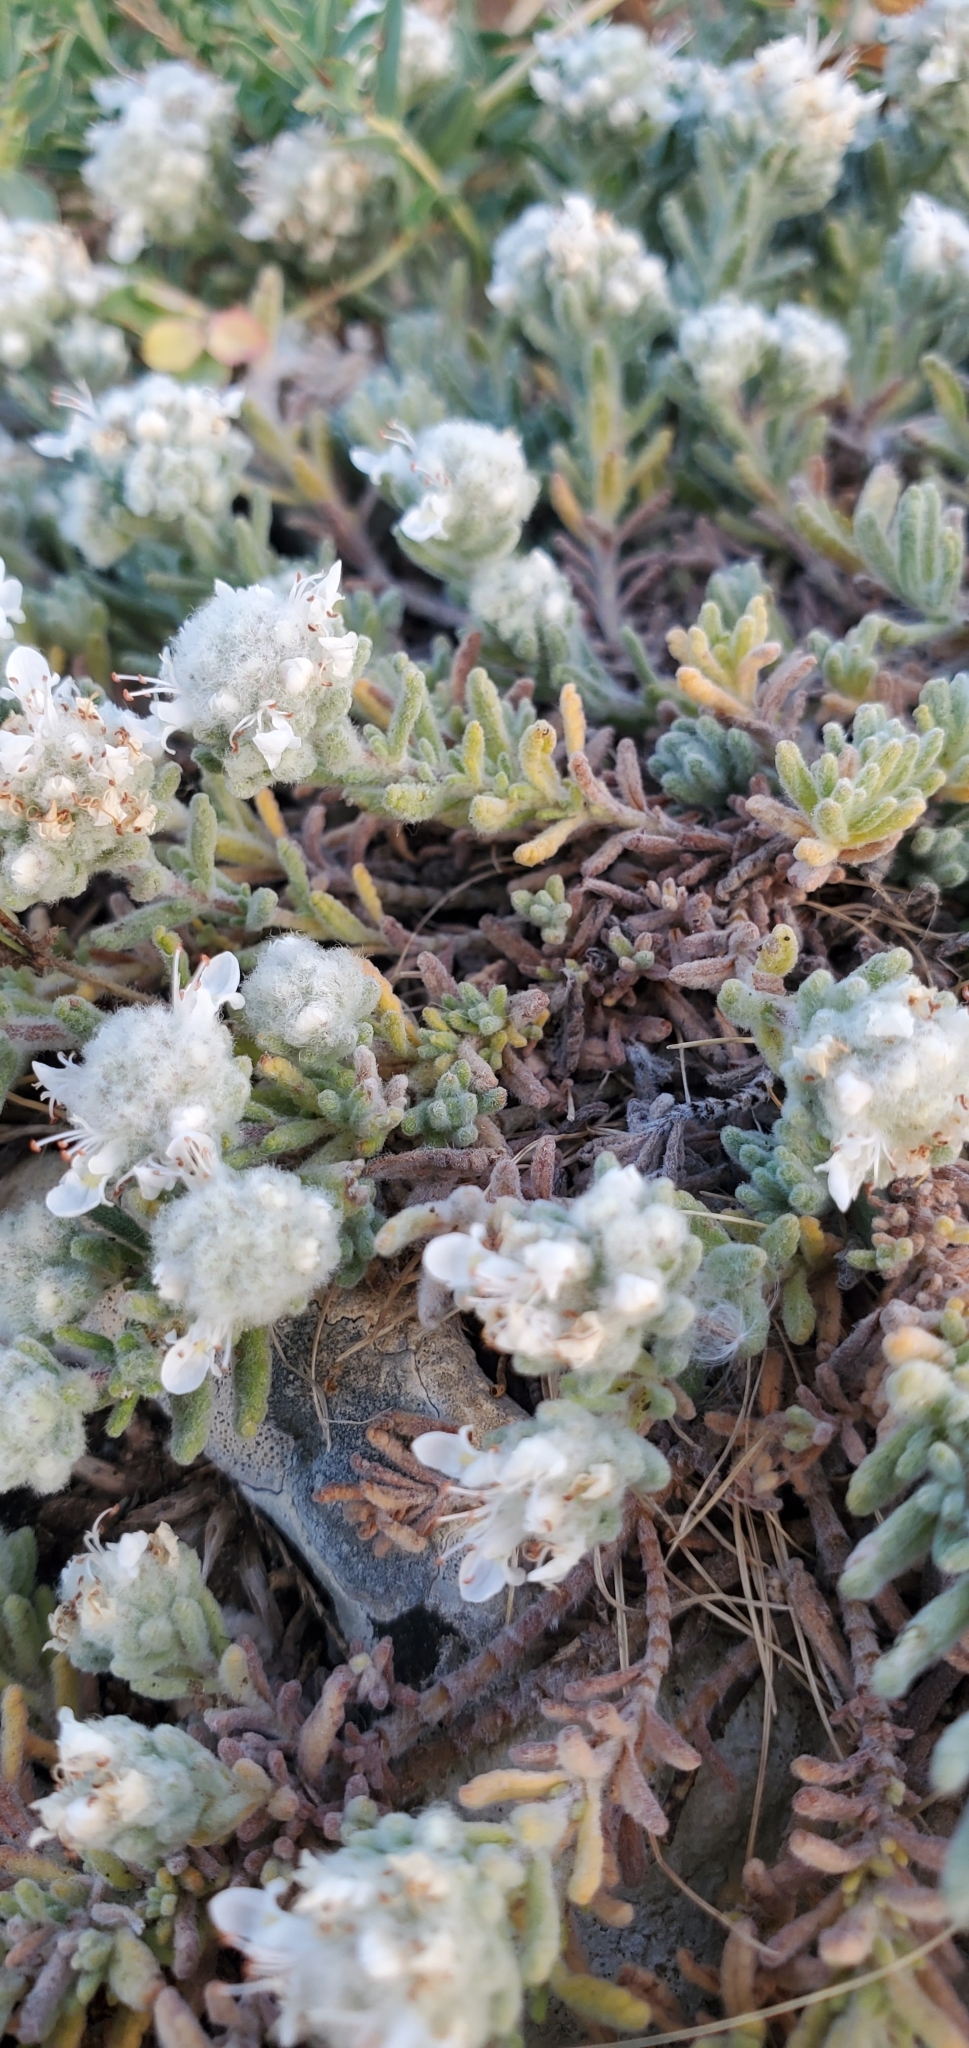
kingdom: Plantae
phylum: Tracheophyta
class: Magnoliopsida
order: Lamiales
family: Lamiaceae
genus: Teucrium
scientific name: Teucrium capitatum
